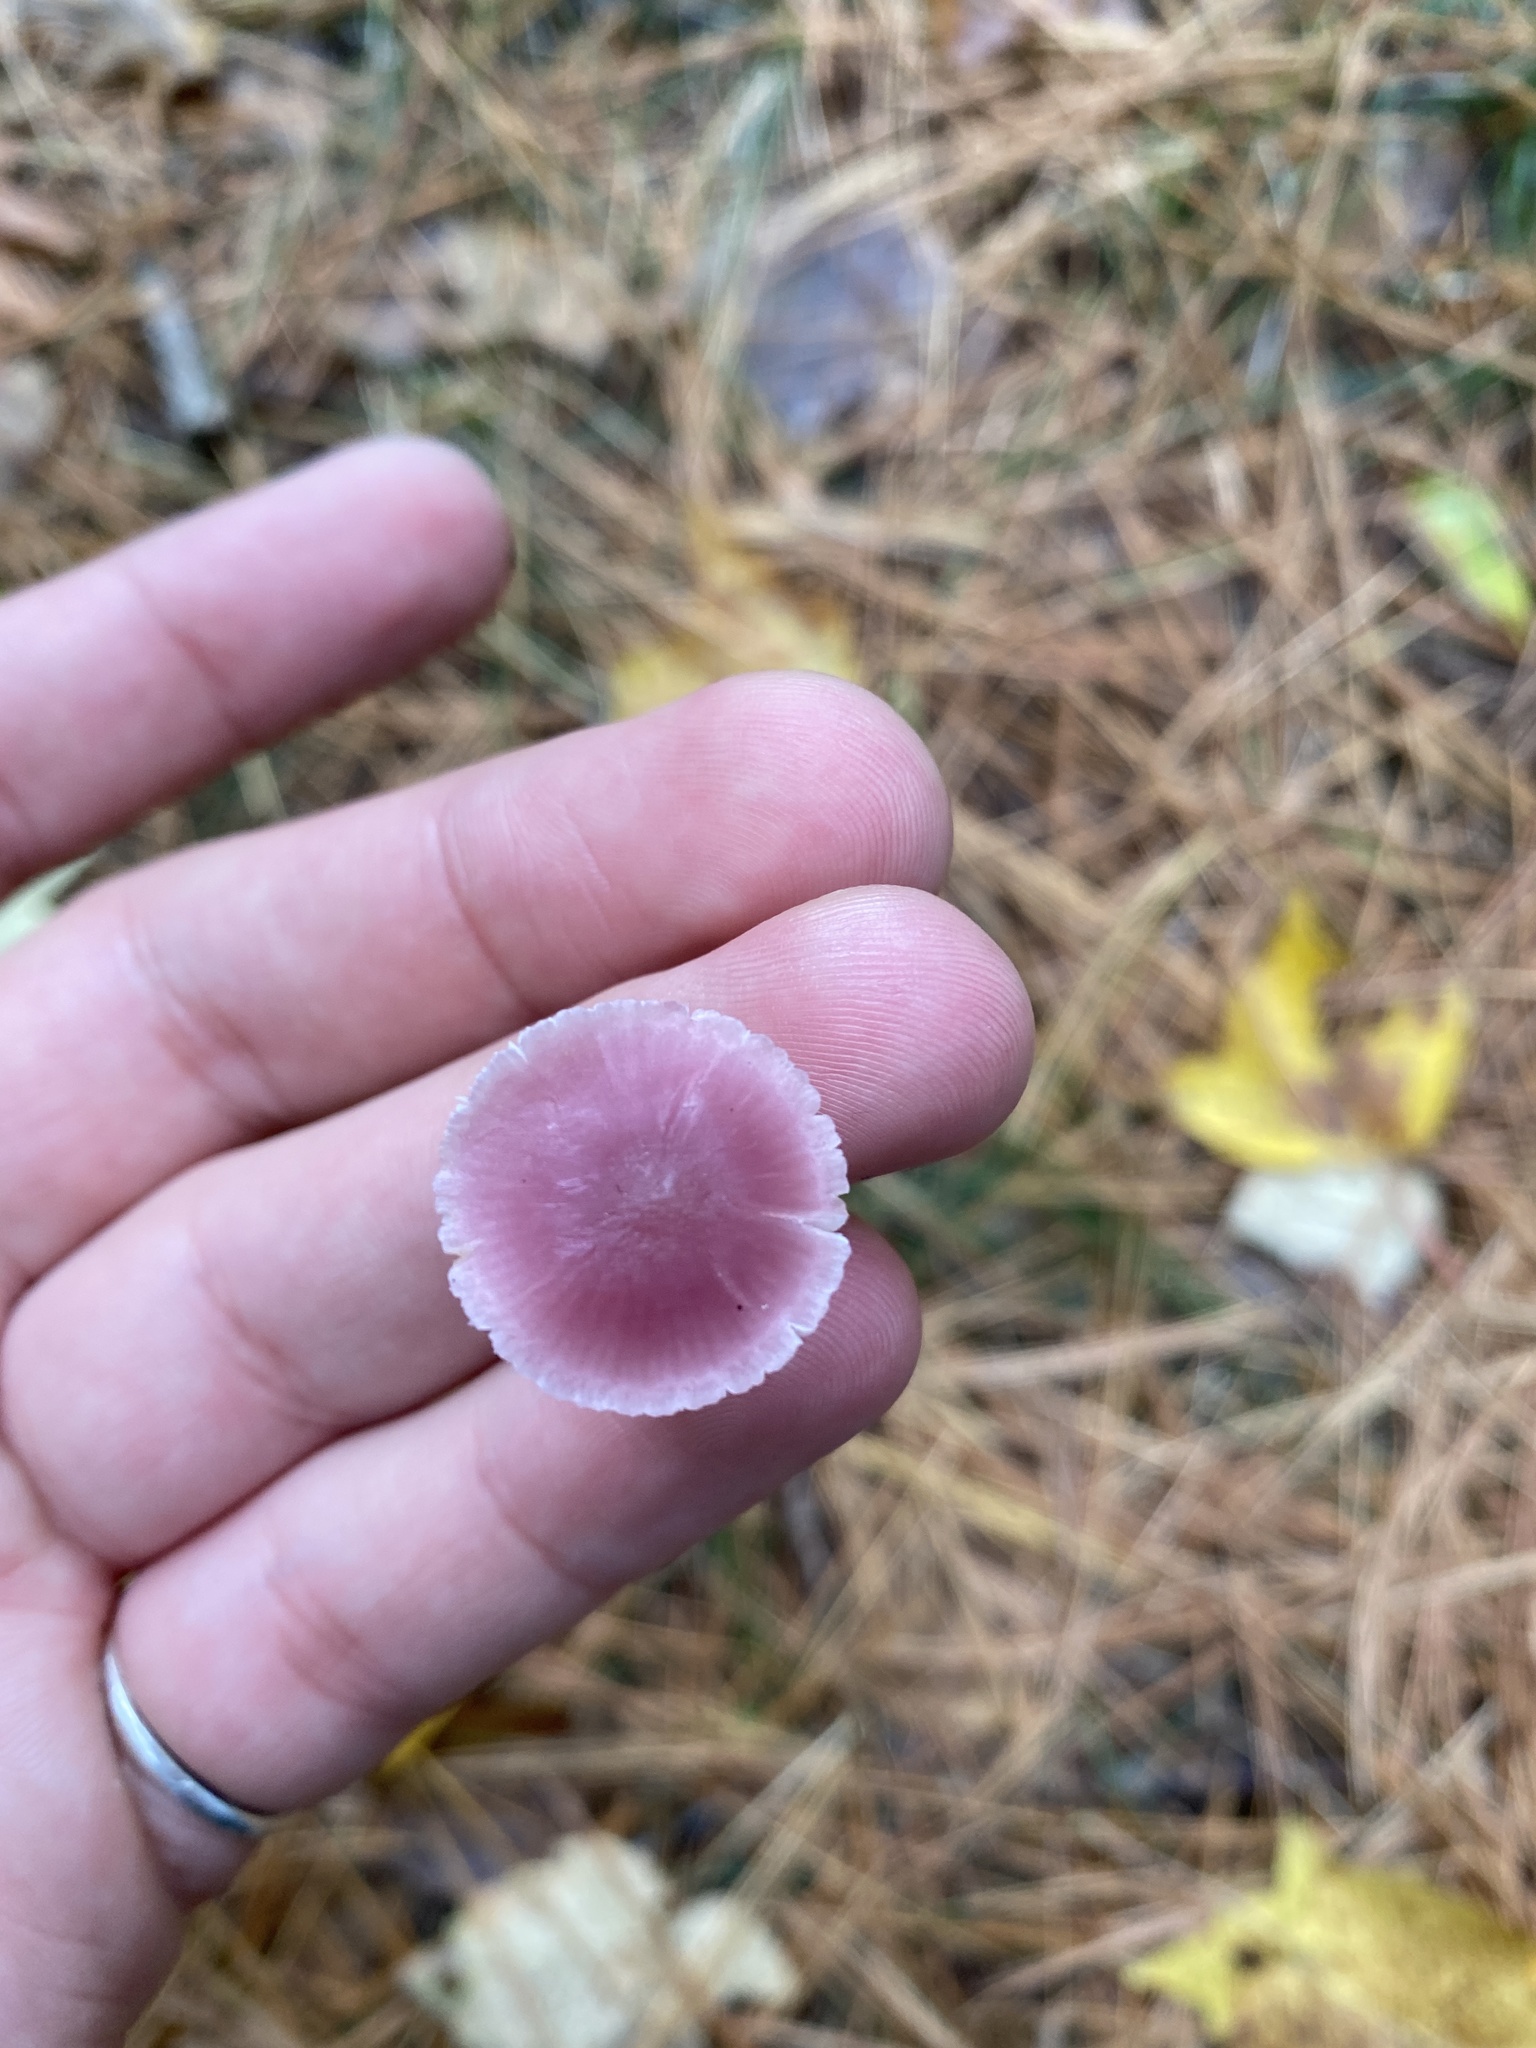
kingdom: Fungi
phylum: Basidiomycota
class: Agaricomycetes
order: Agaricales
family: Mycenaceae
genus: Mycena
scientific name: Mycena pura
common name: Lilac bonnet
